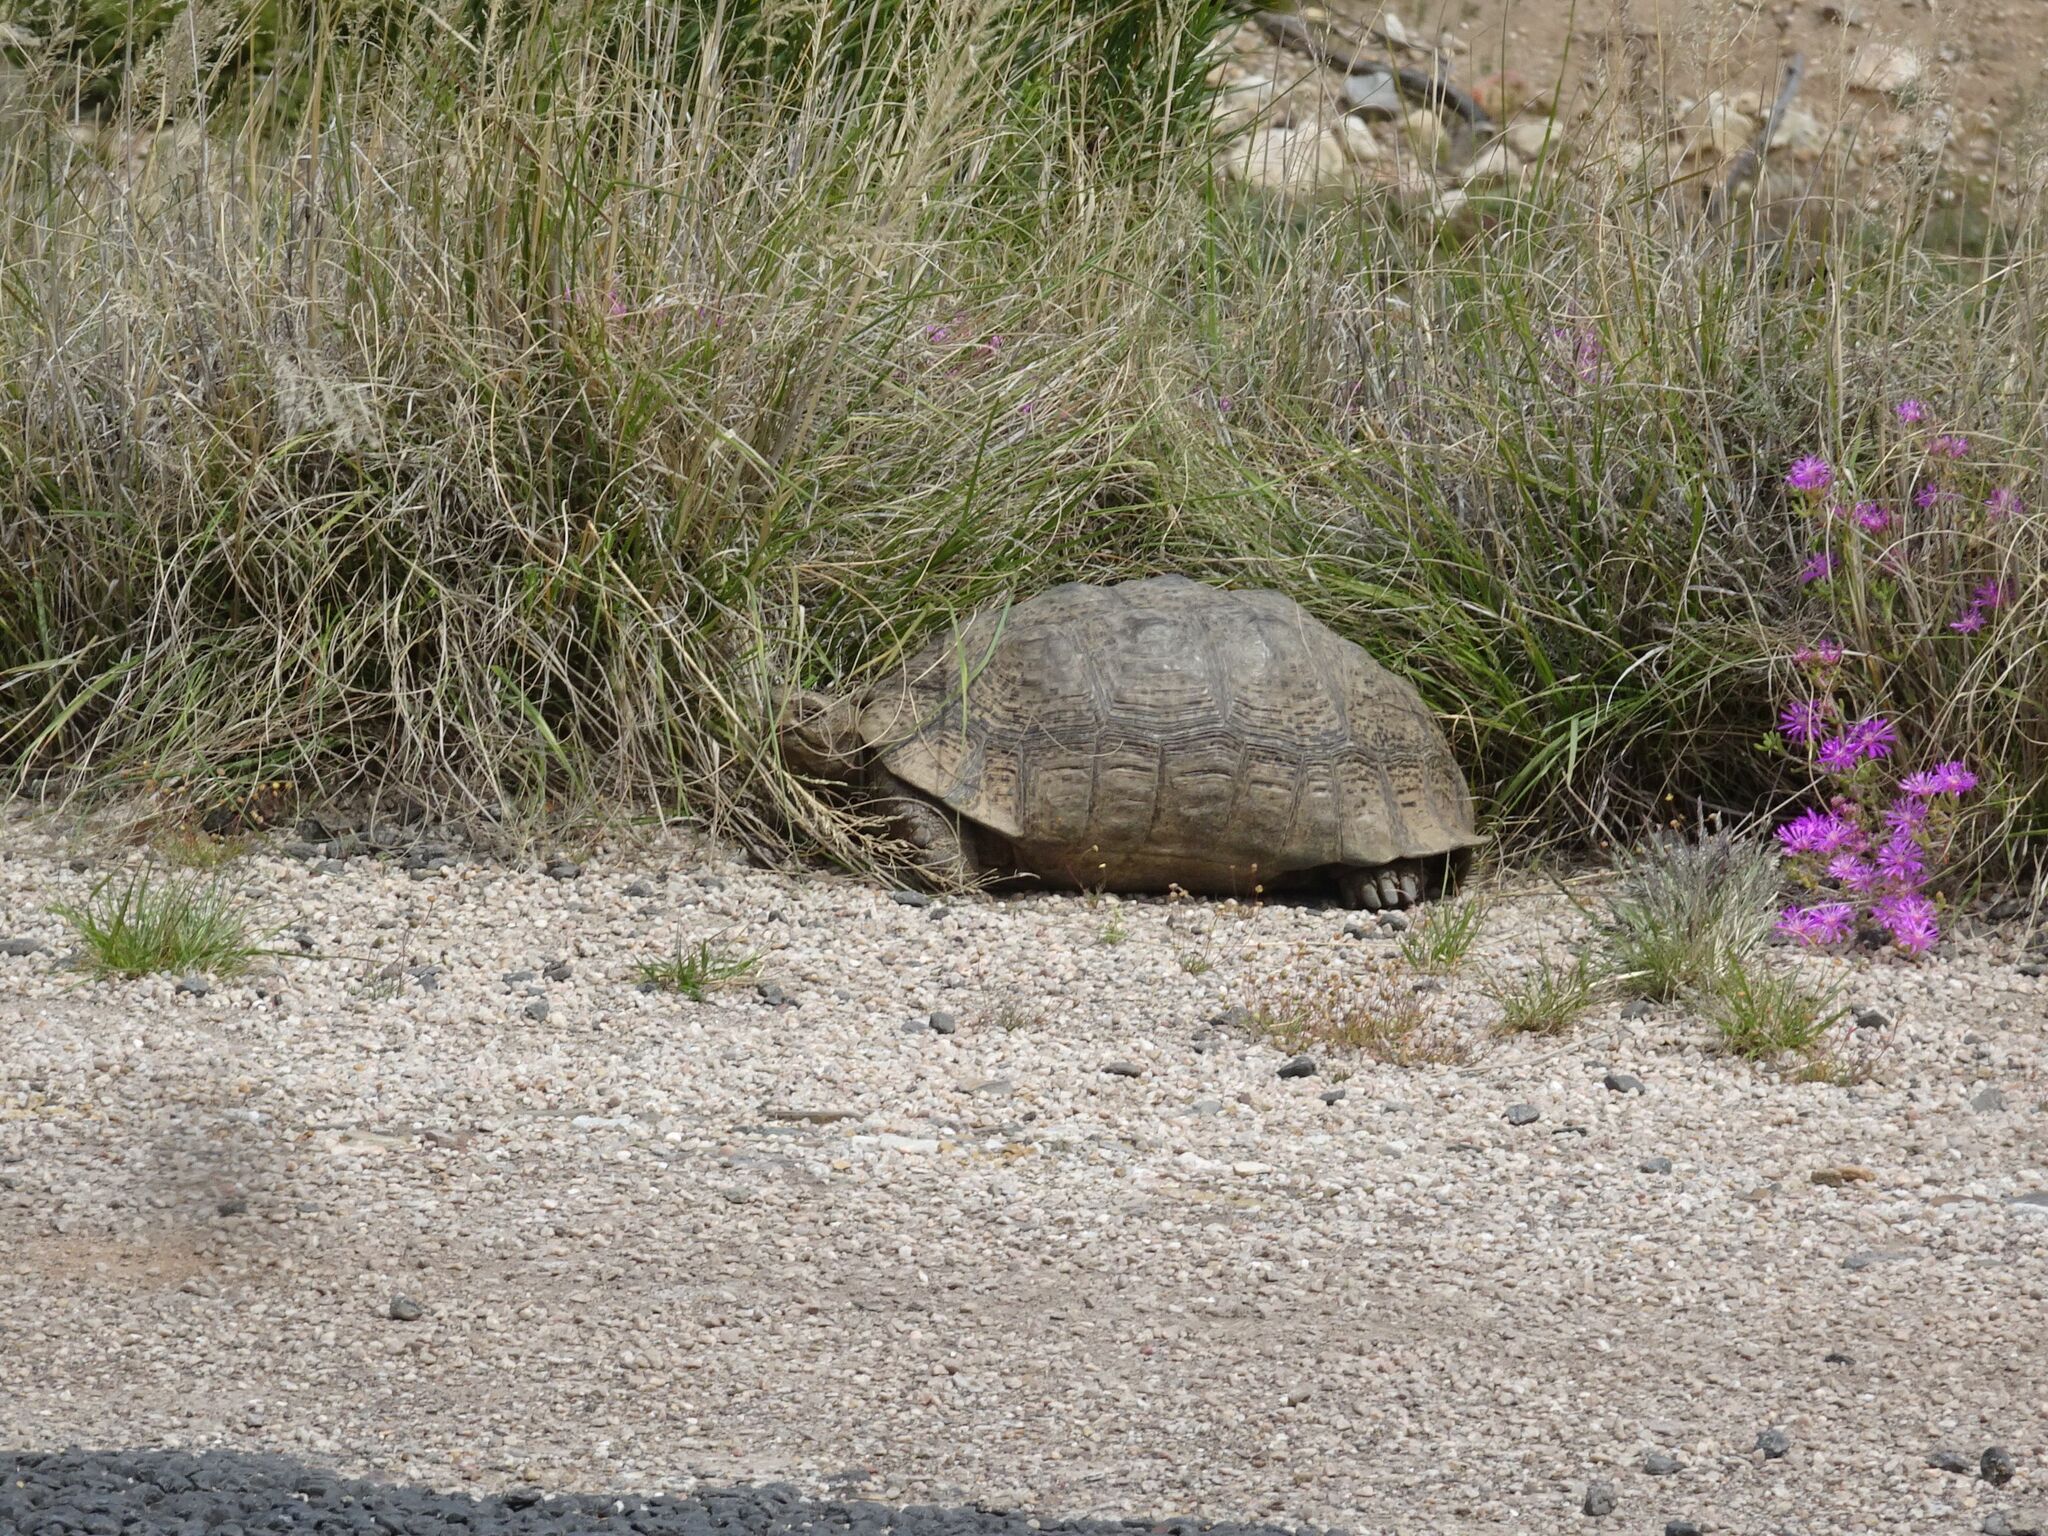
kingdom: Animalia
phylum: Chordata
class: Testudines
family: Testudinidae
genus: Stigmochelys
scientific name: Stigmochelys pardalis
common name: Leopard tortoise
